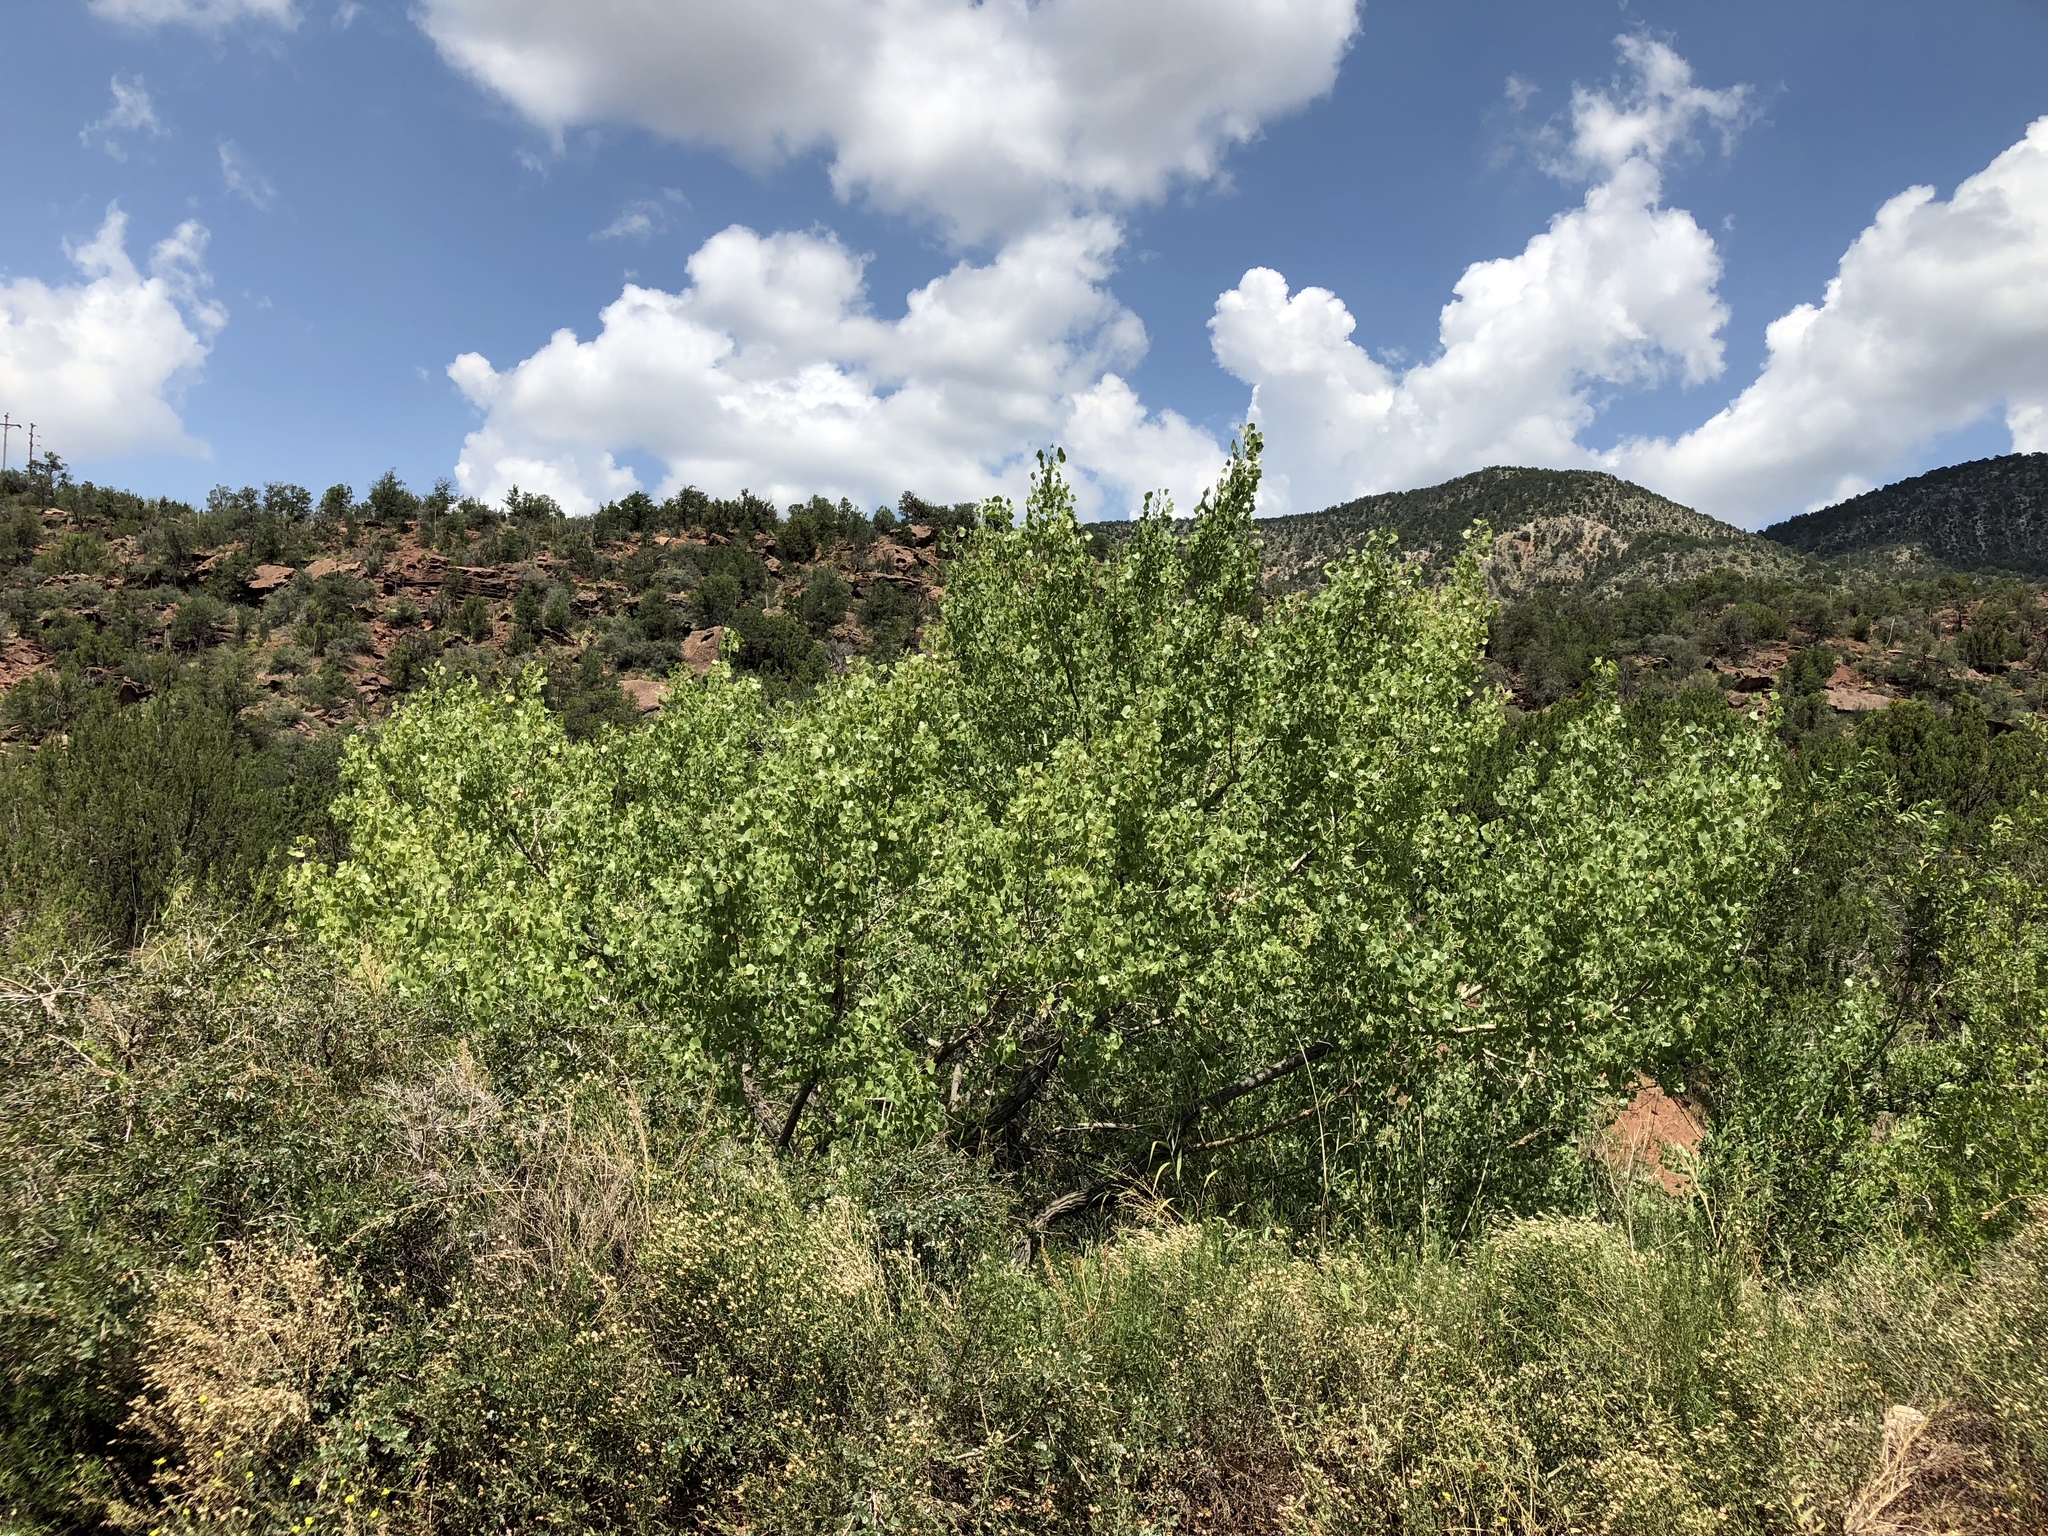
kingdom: Plantae
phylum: Tracheophyta
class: Magnoliopsida
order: Malpighiales
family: Salicaceae
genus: Populus
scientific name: Populus fremontii
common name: Fremont's cottonwood
